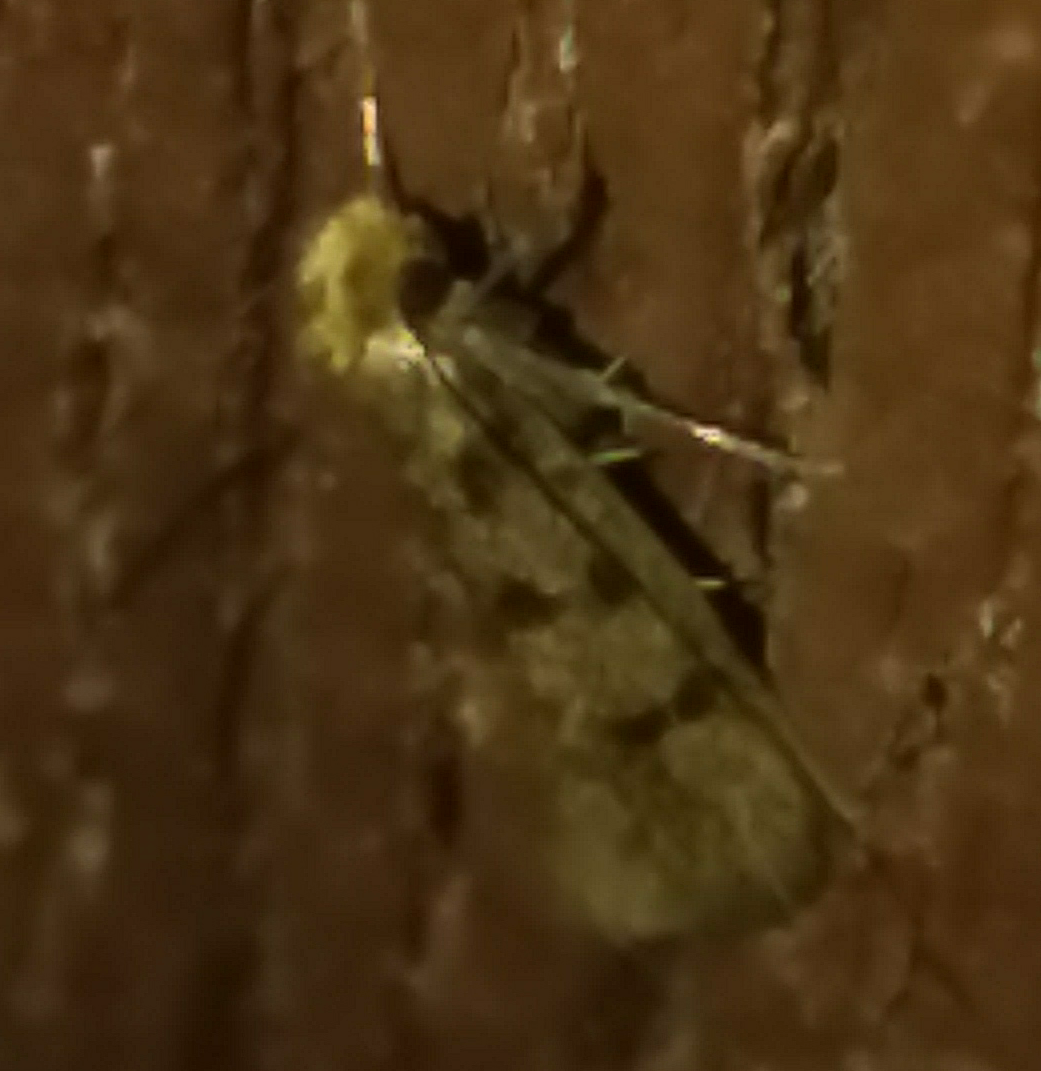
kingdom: Animalia
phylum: Arthropoda
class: Insecta
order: Lepidoptera
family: Tineidae
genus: Phereoeca
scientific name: Phereoeca praecox
